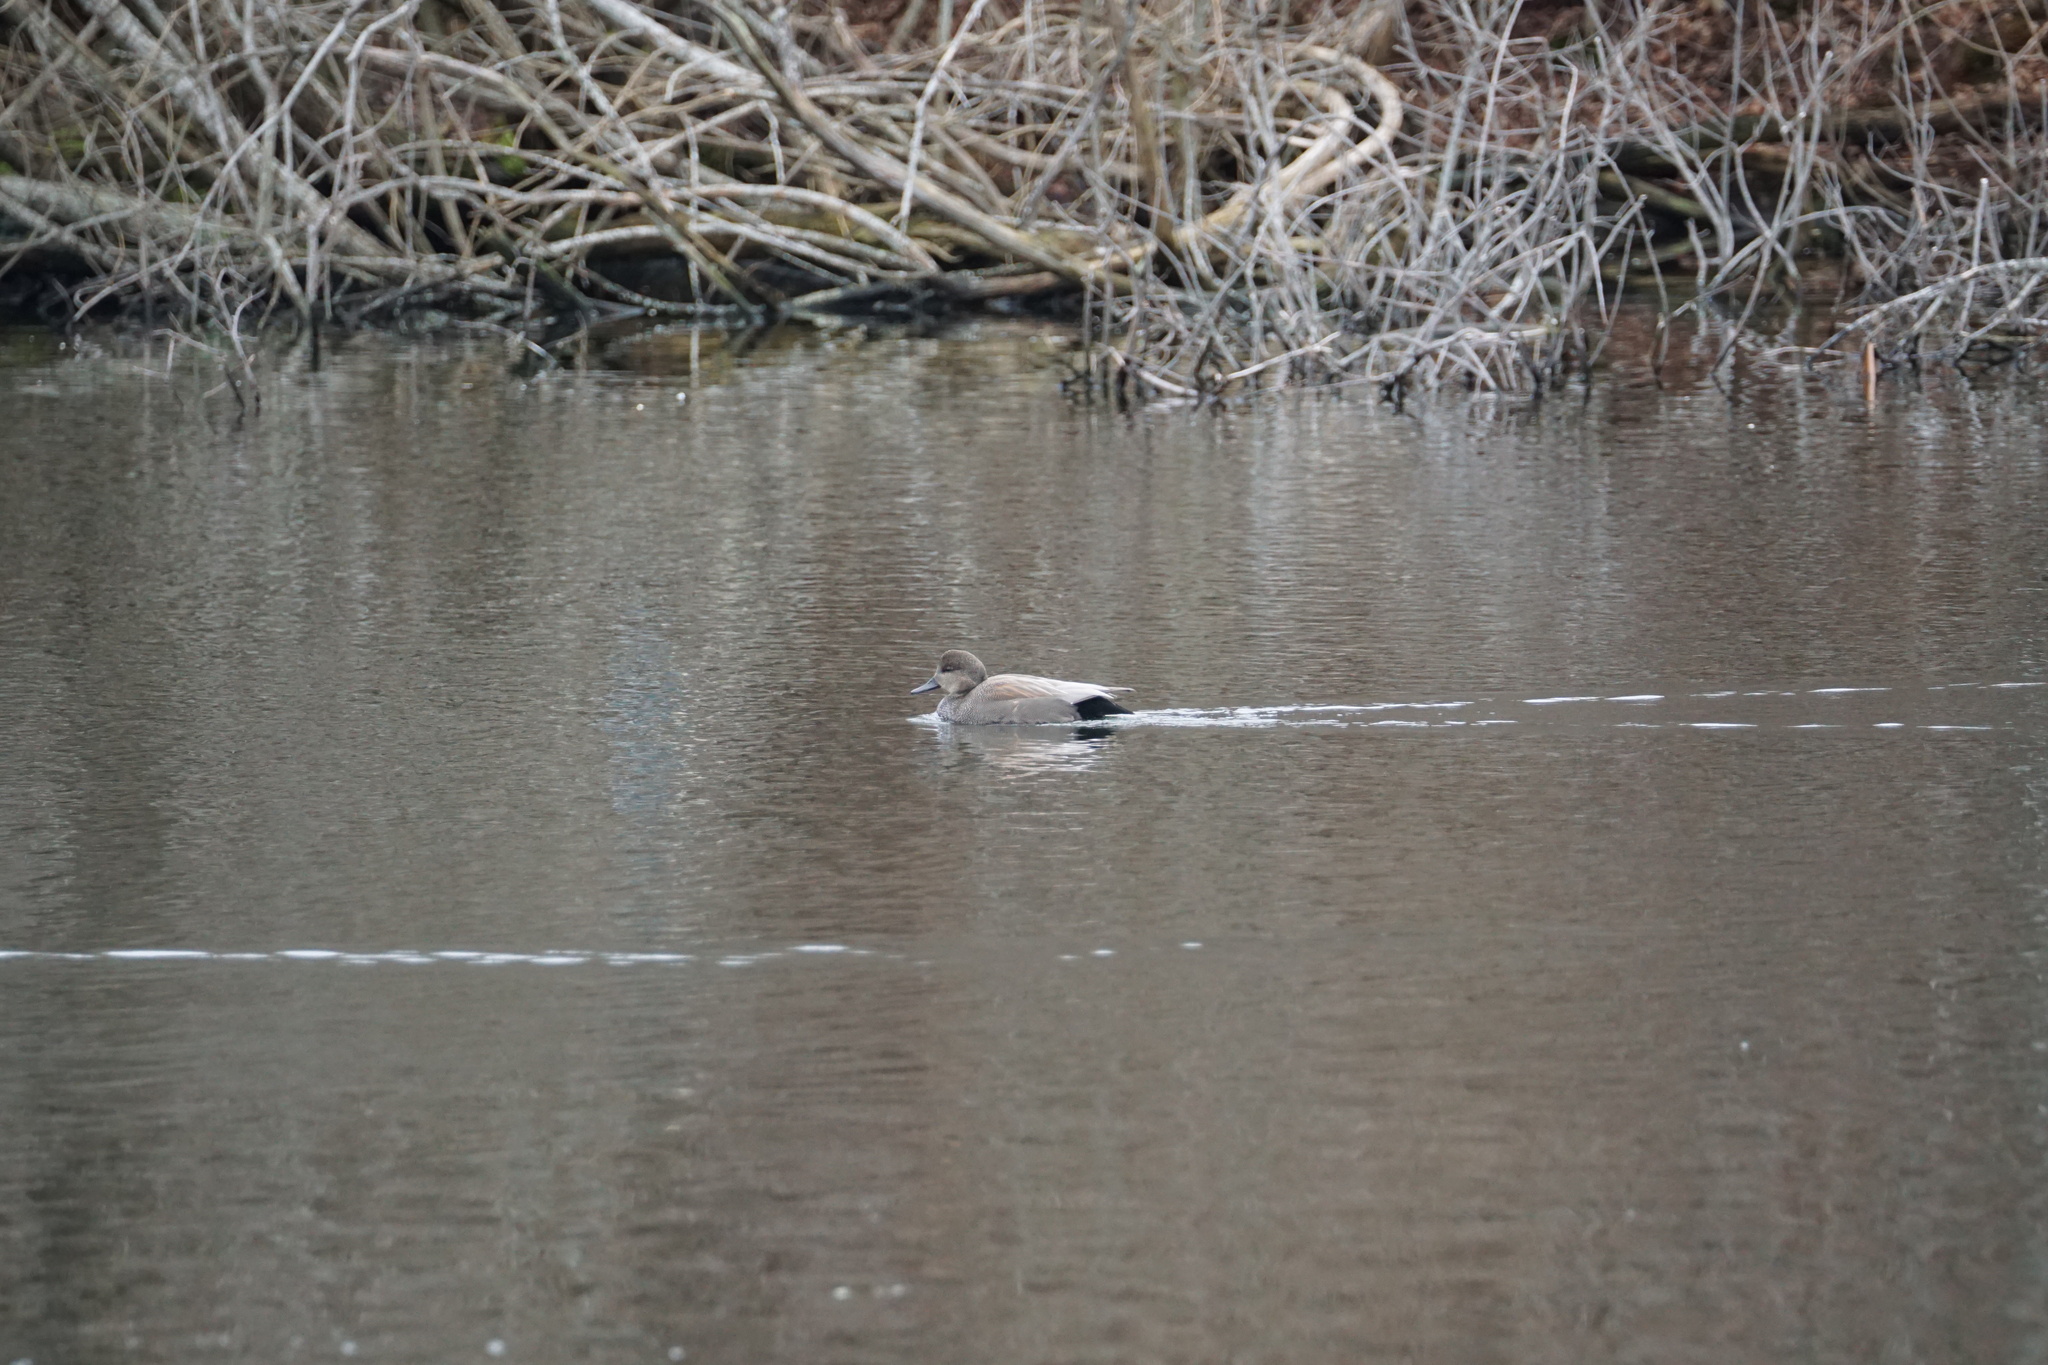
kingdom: Animalia
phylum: Chordata
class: Aves
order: Anseriformes
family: Anatidae
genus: Mareca
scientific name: Mareca strepera
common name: Gadwall
